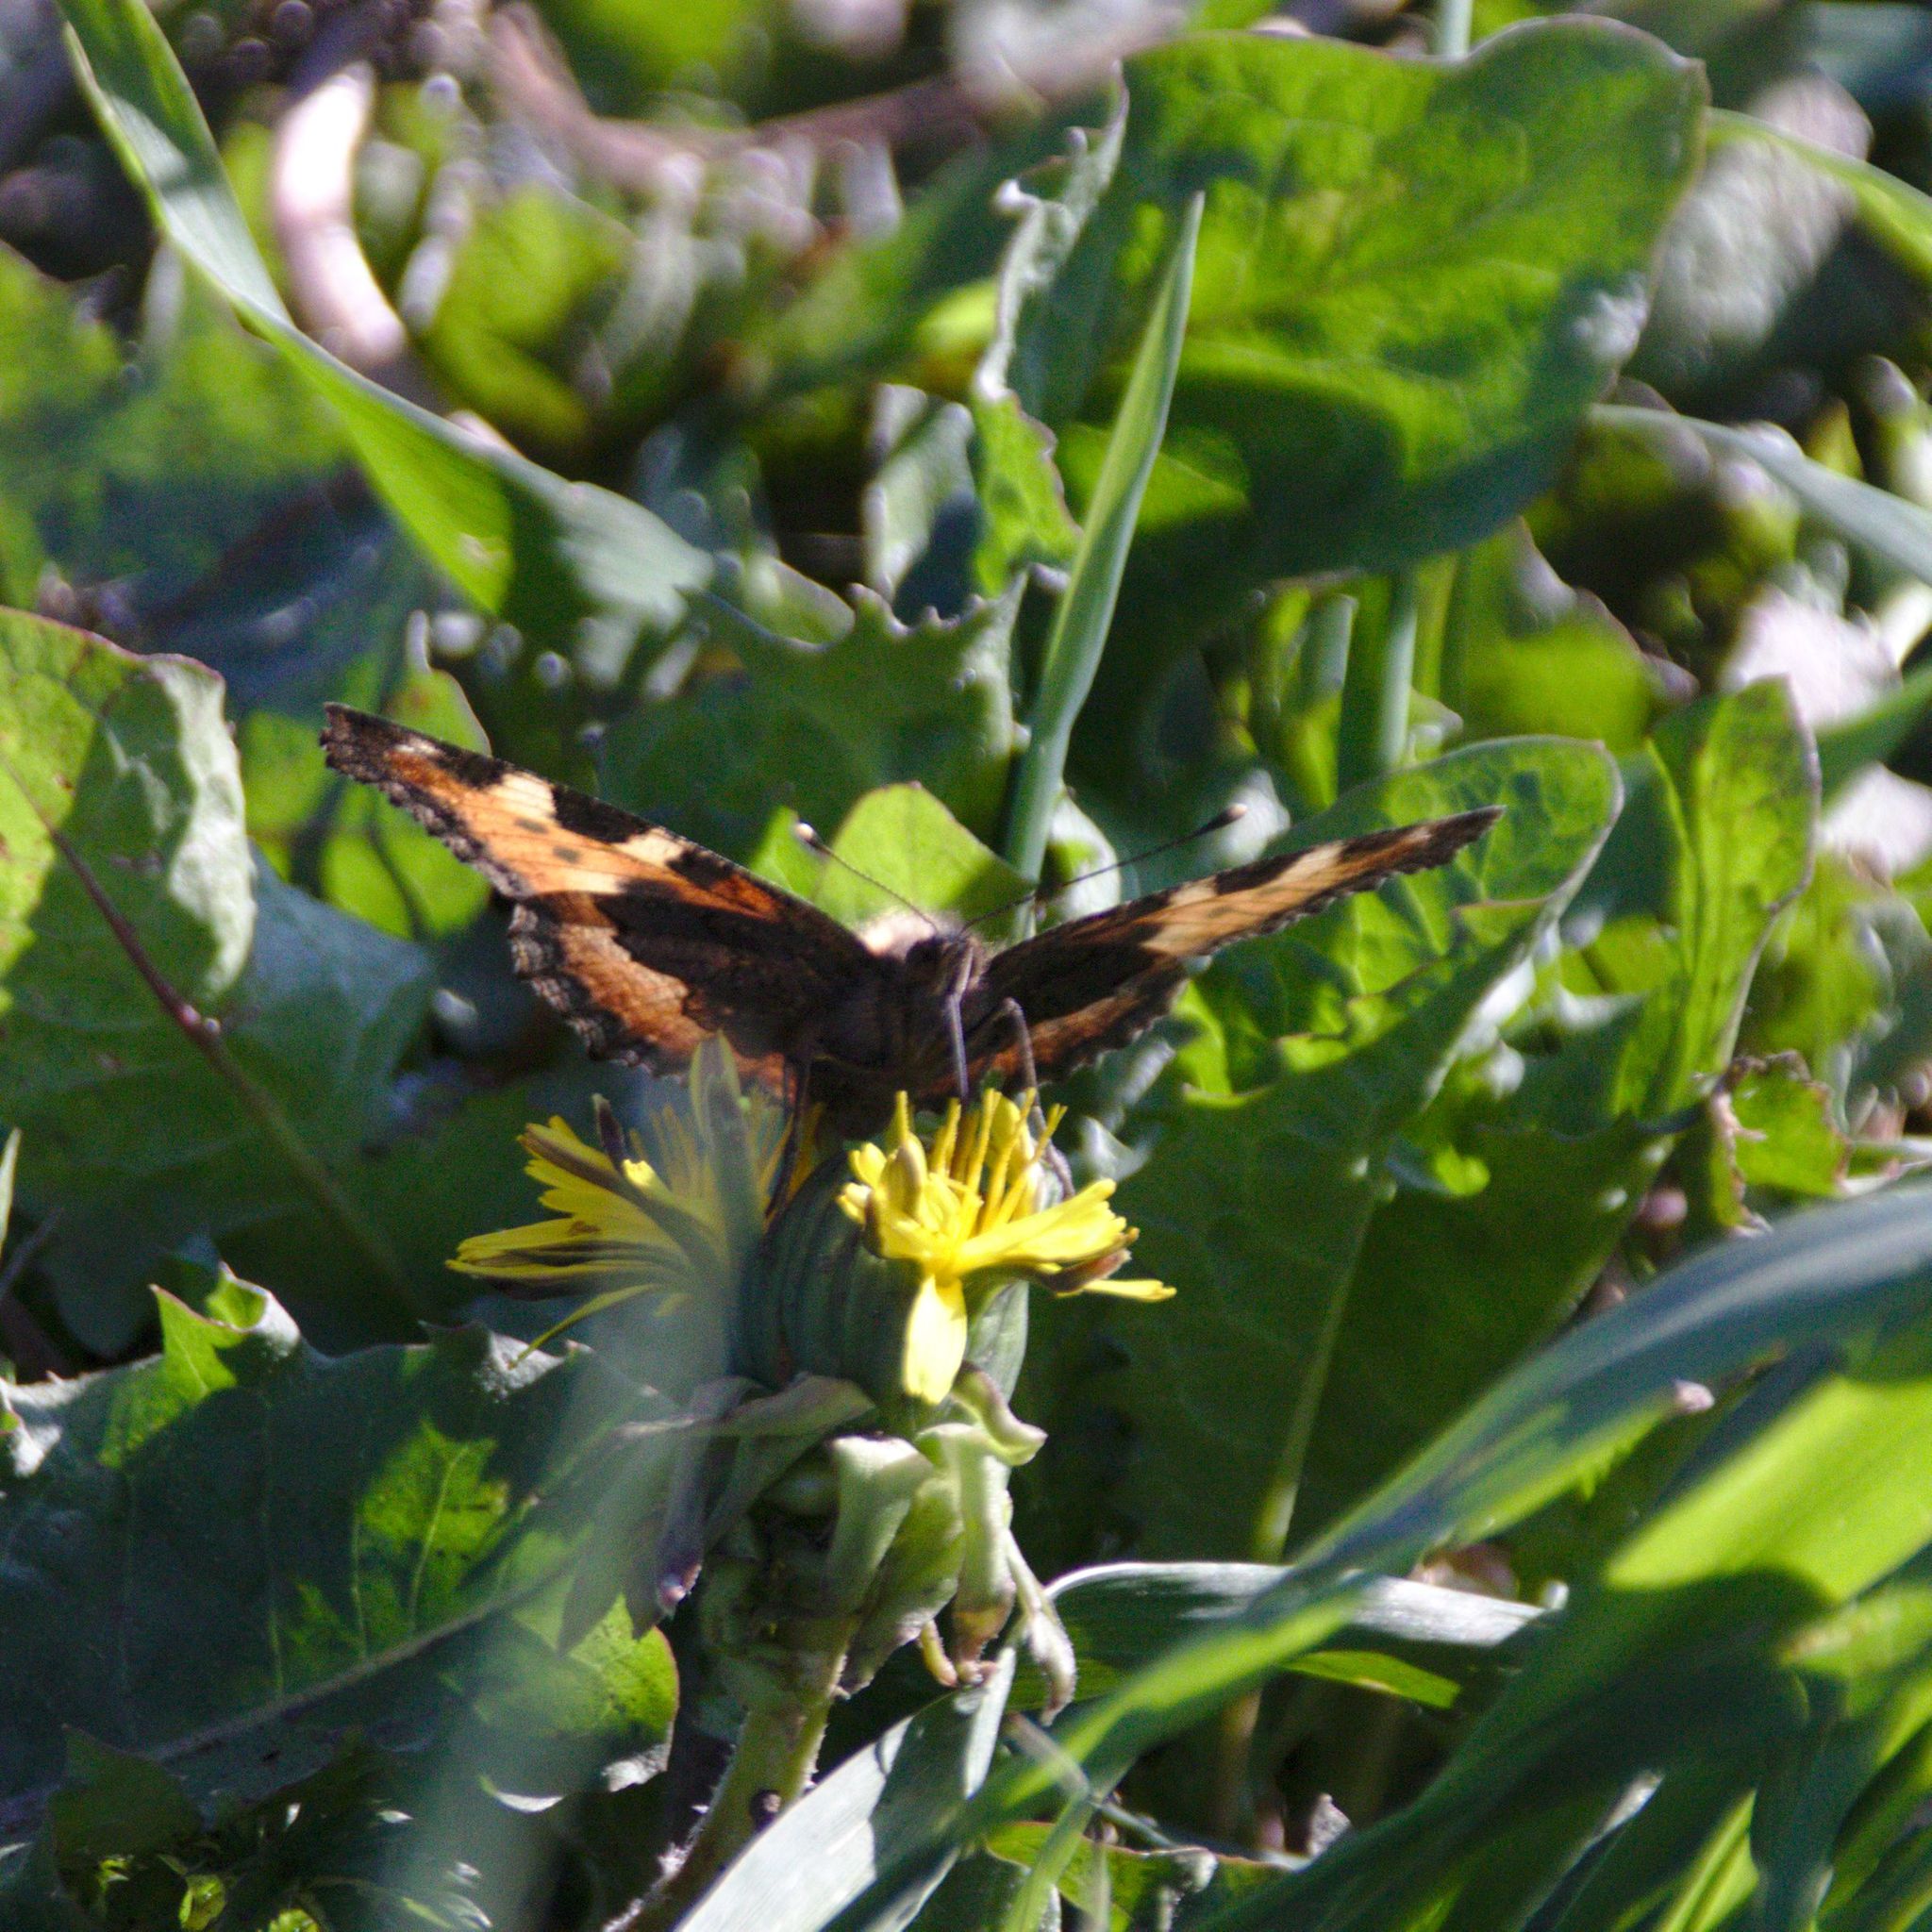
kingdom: Animalia
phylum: Arthropoda
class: Insecta
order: Lepidoptera
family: Nymphalidae
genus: Aglais
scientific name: Aglais urticae
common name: Small tortoiseshell
